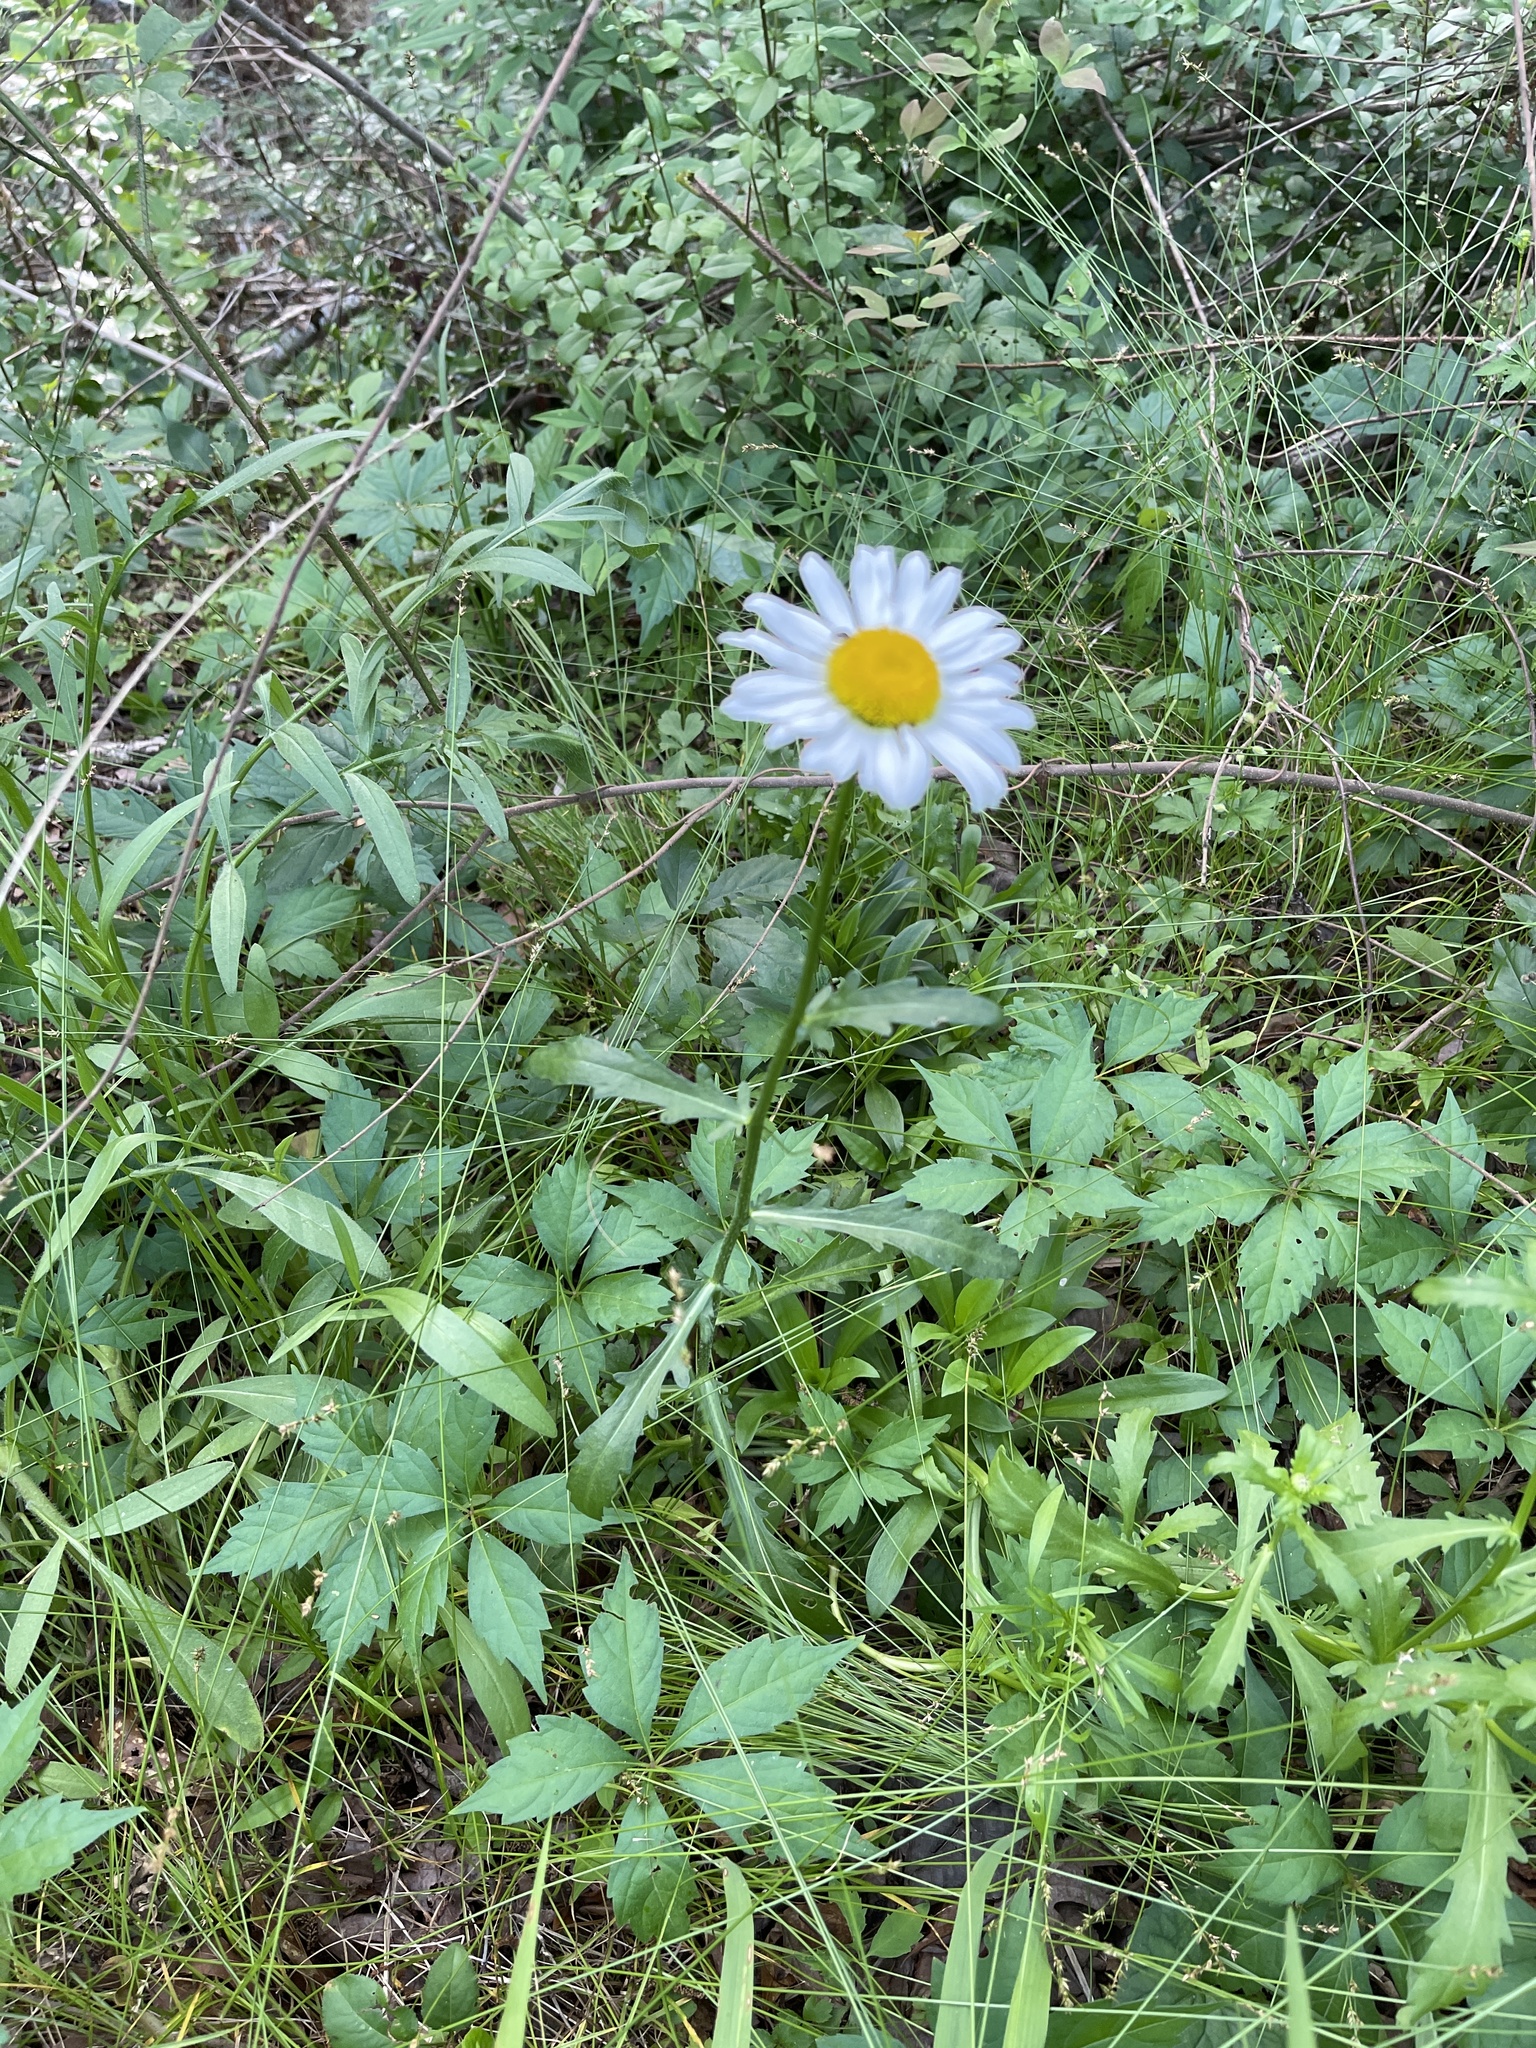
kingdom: Plantae
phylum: Tracheophyta
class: Magnoliopsida
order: Asterales
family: Asteraceae
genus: Leucanthemum
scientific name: Leucanthemum vulgare
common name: Oxeye daisy
